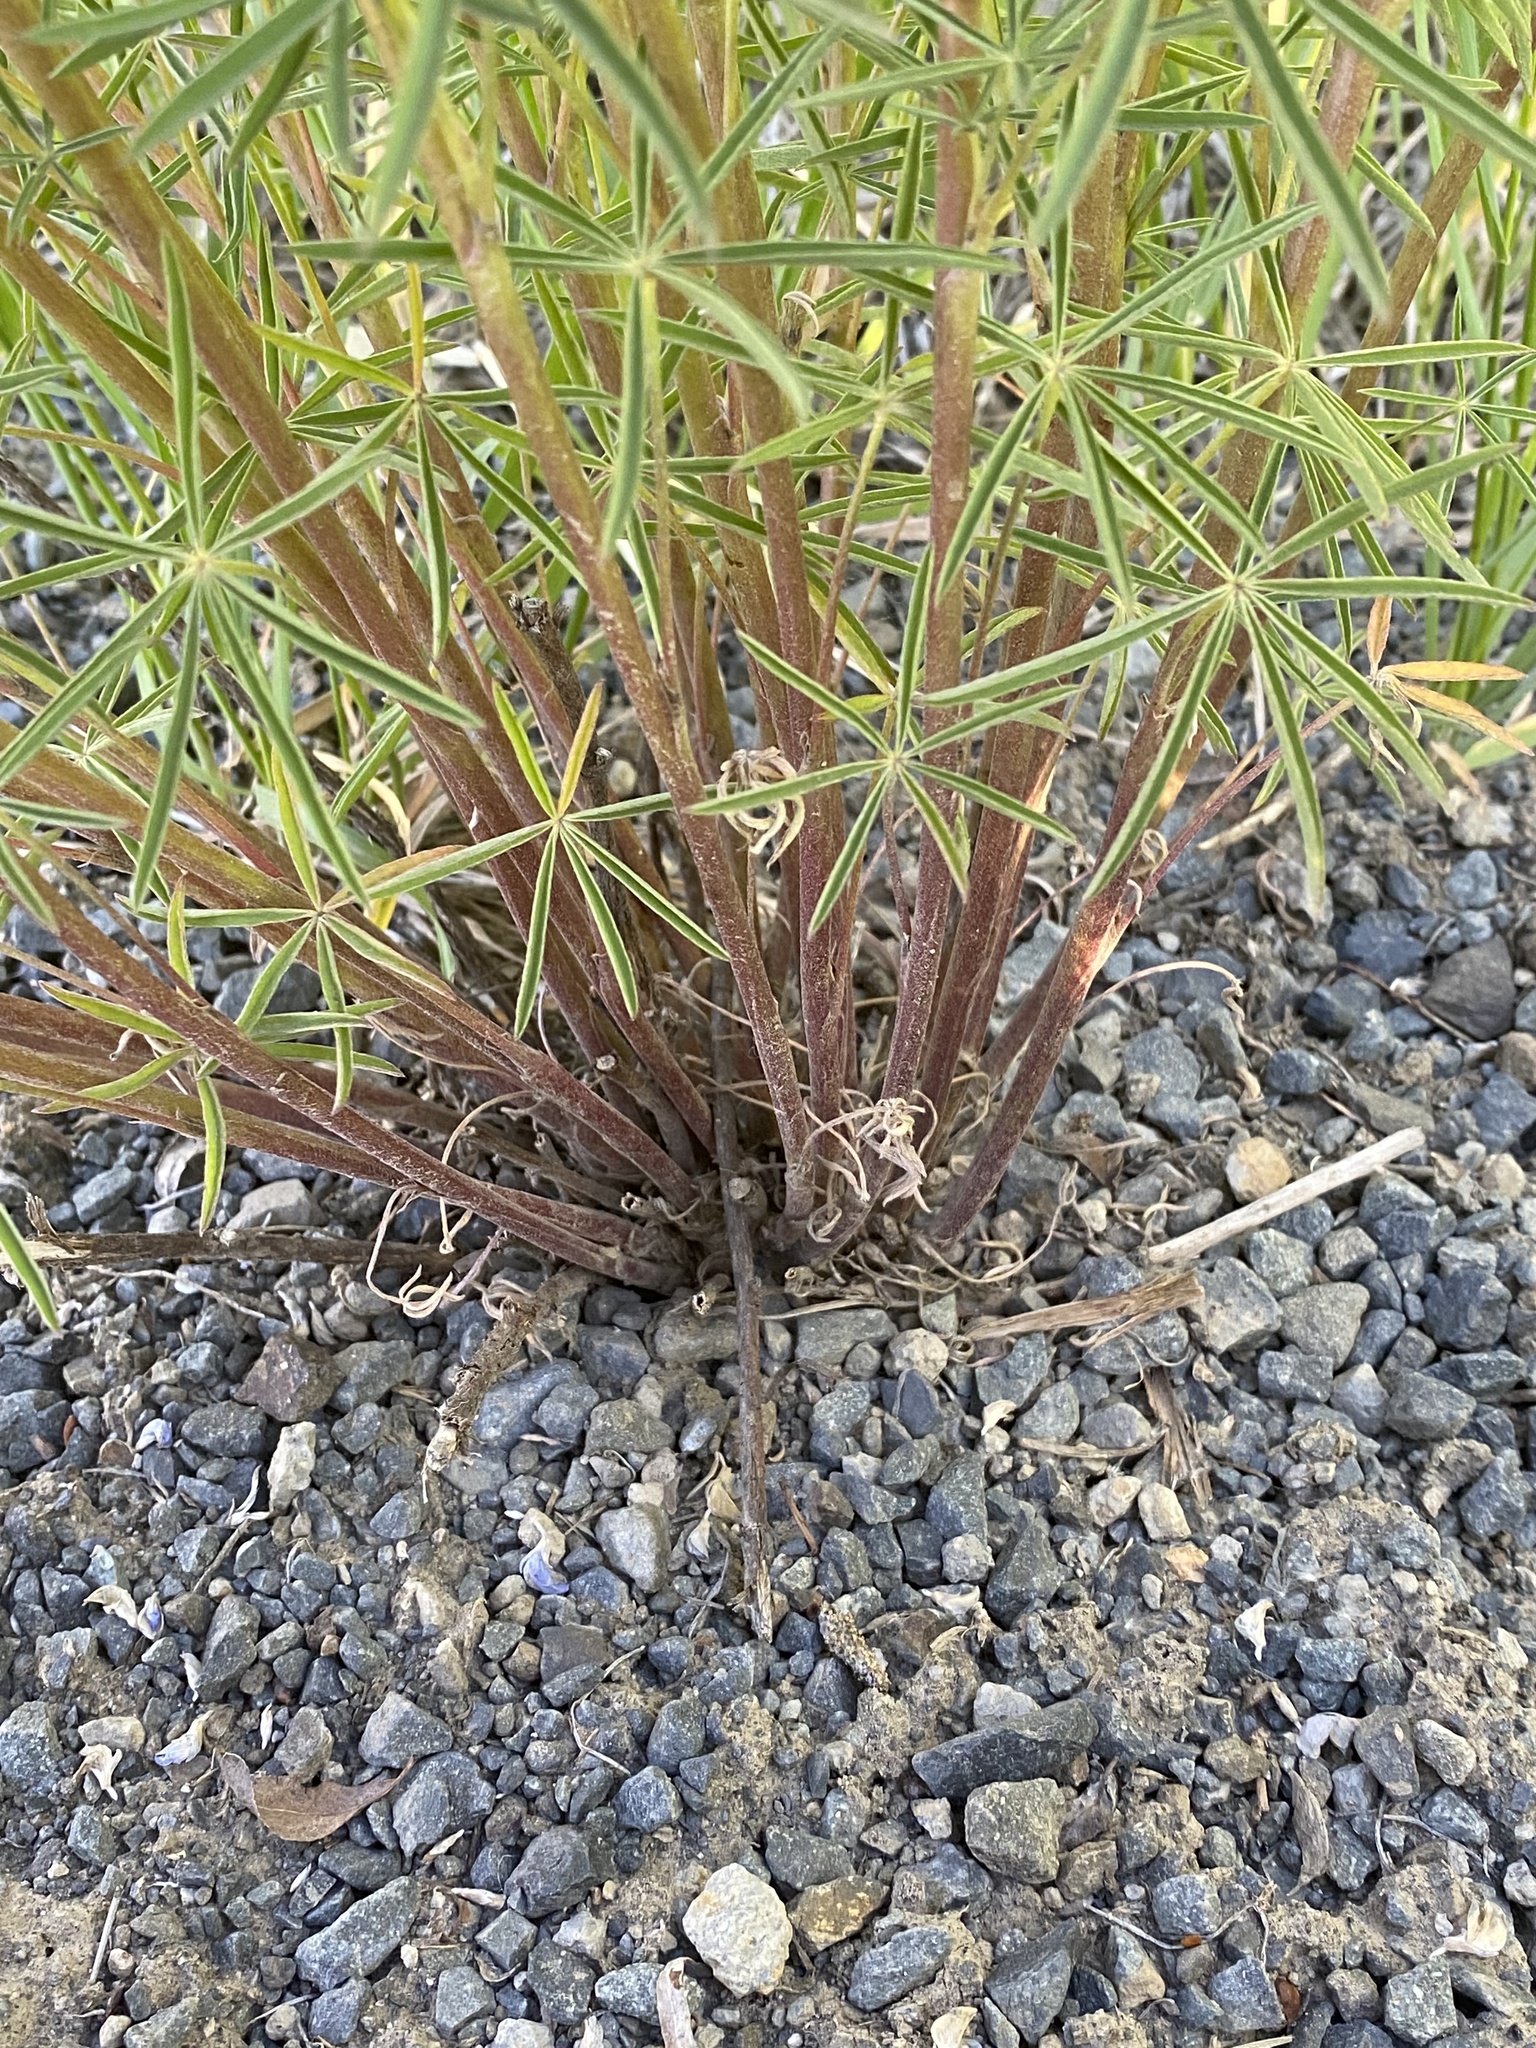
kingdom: Plantae
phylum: Tracheophyta
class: Magnoliopsida
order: Fabales
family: Fabaceae
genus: Lupinus
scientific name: Lupinus argenteus
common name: Silvery lupine
